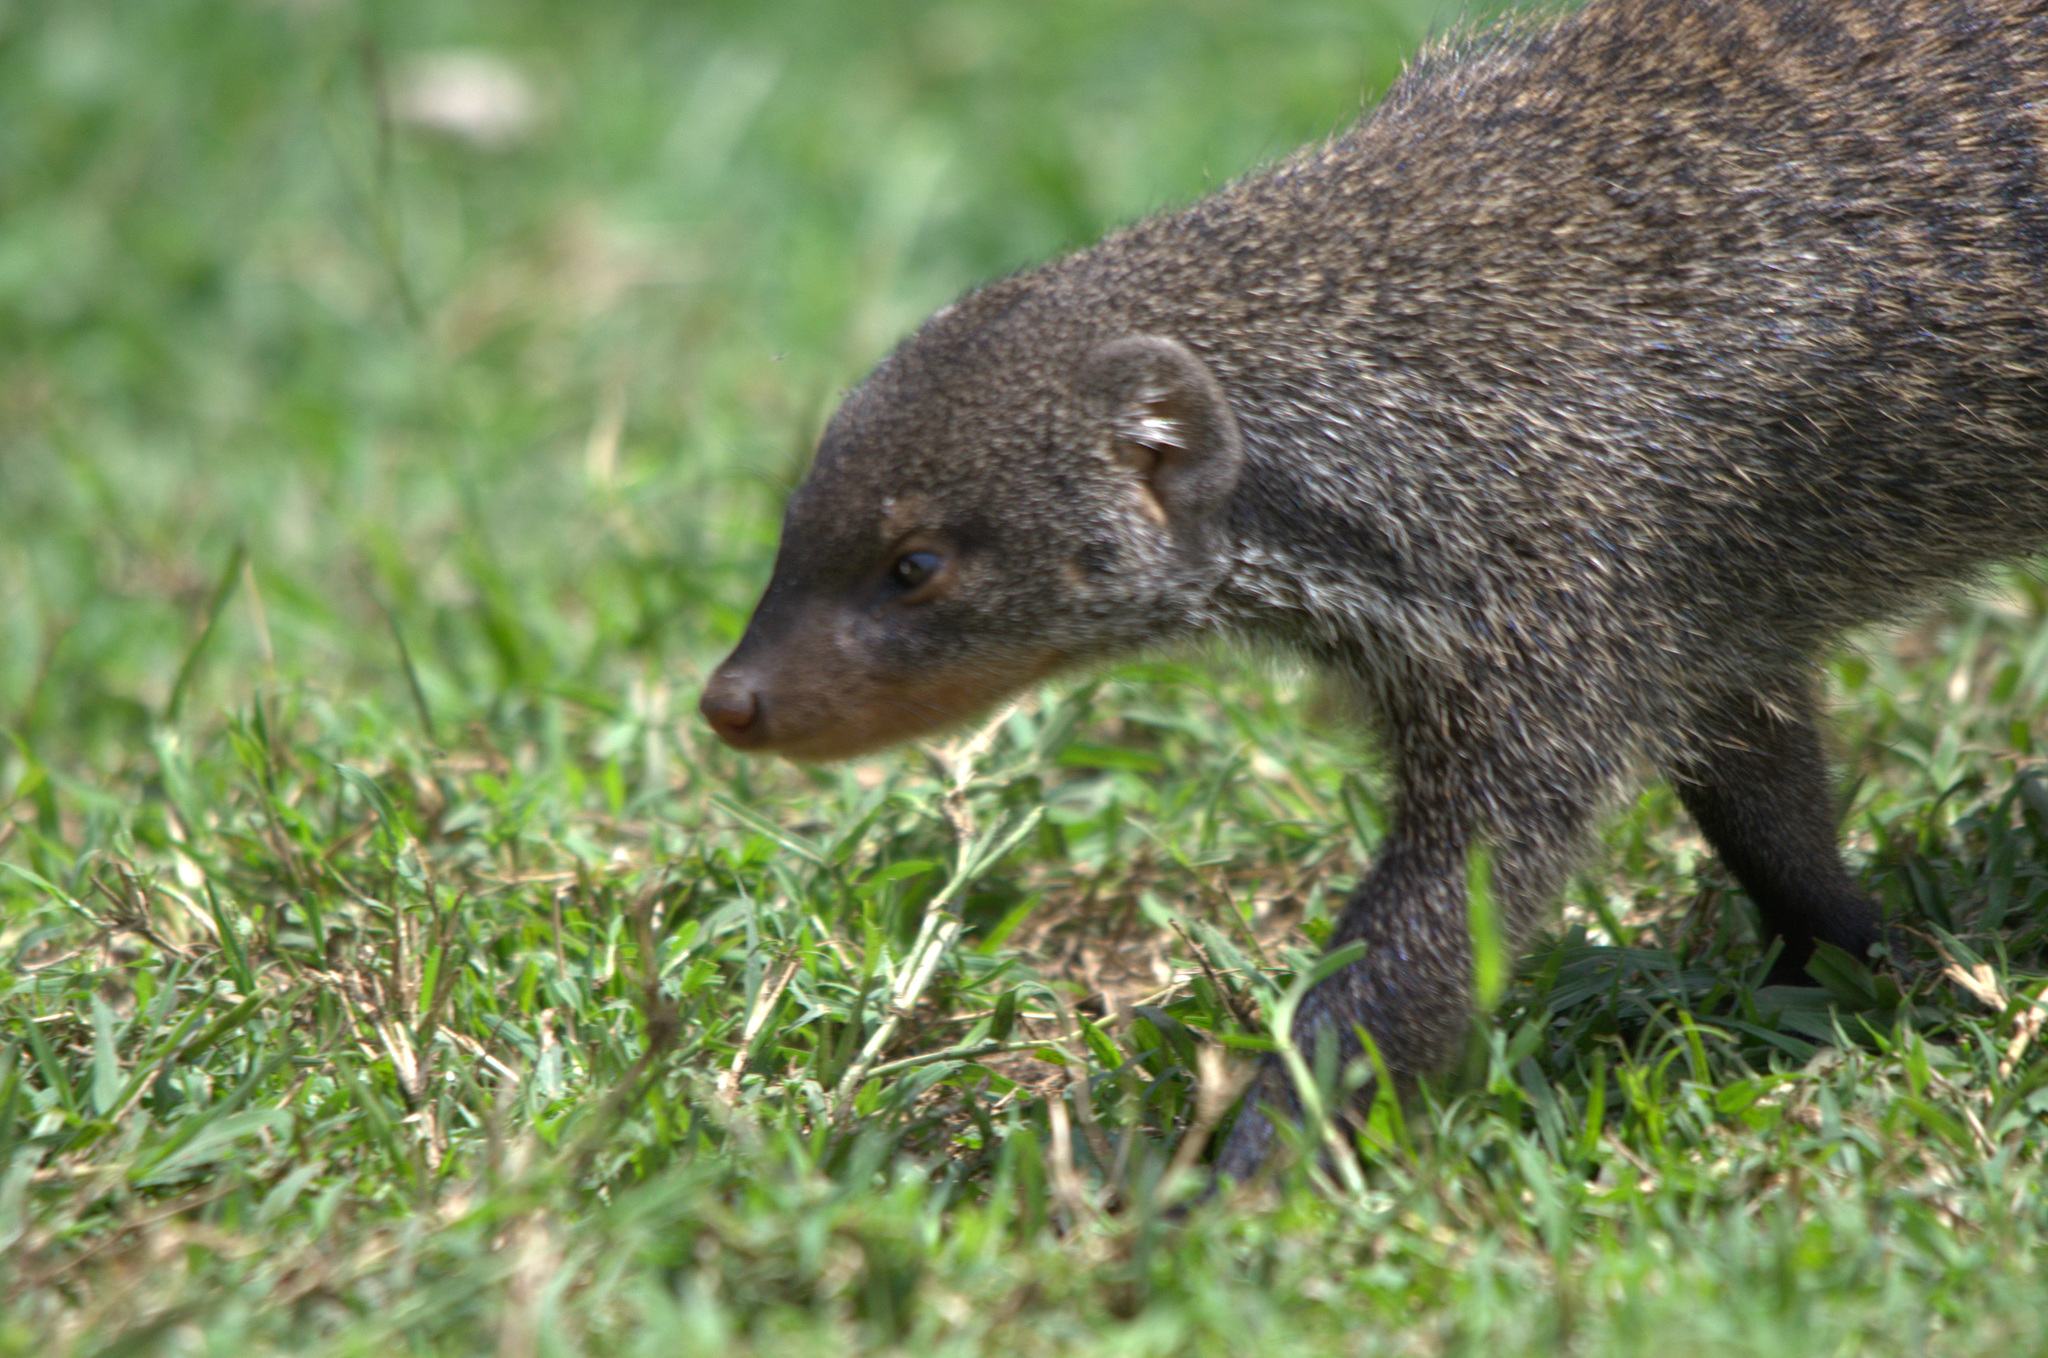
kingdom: Animalia
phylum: Chordata
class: Mammalia
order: Carnivora
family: Herpestidae
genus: Mungos
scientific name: Mungos mungo
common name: Banded mongoose
